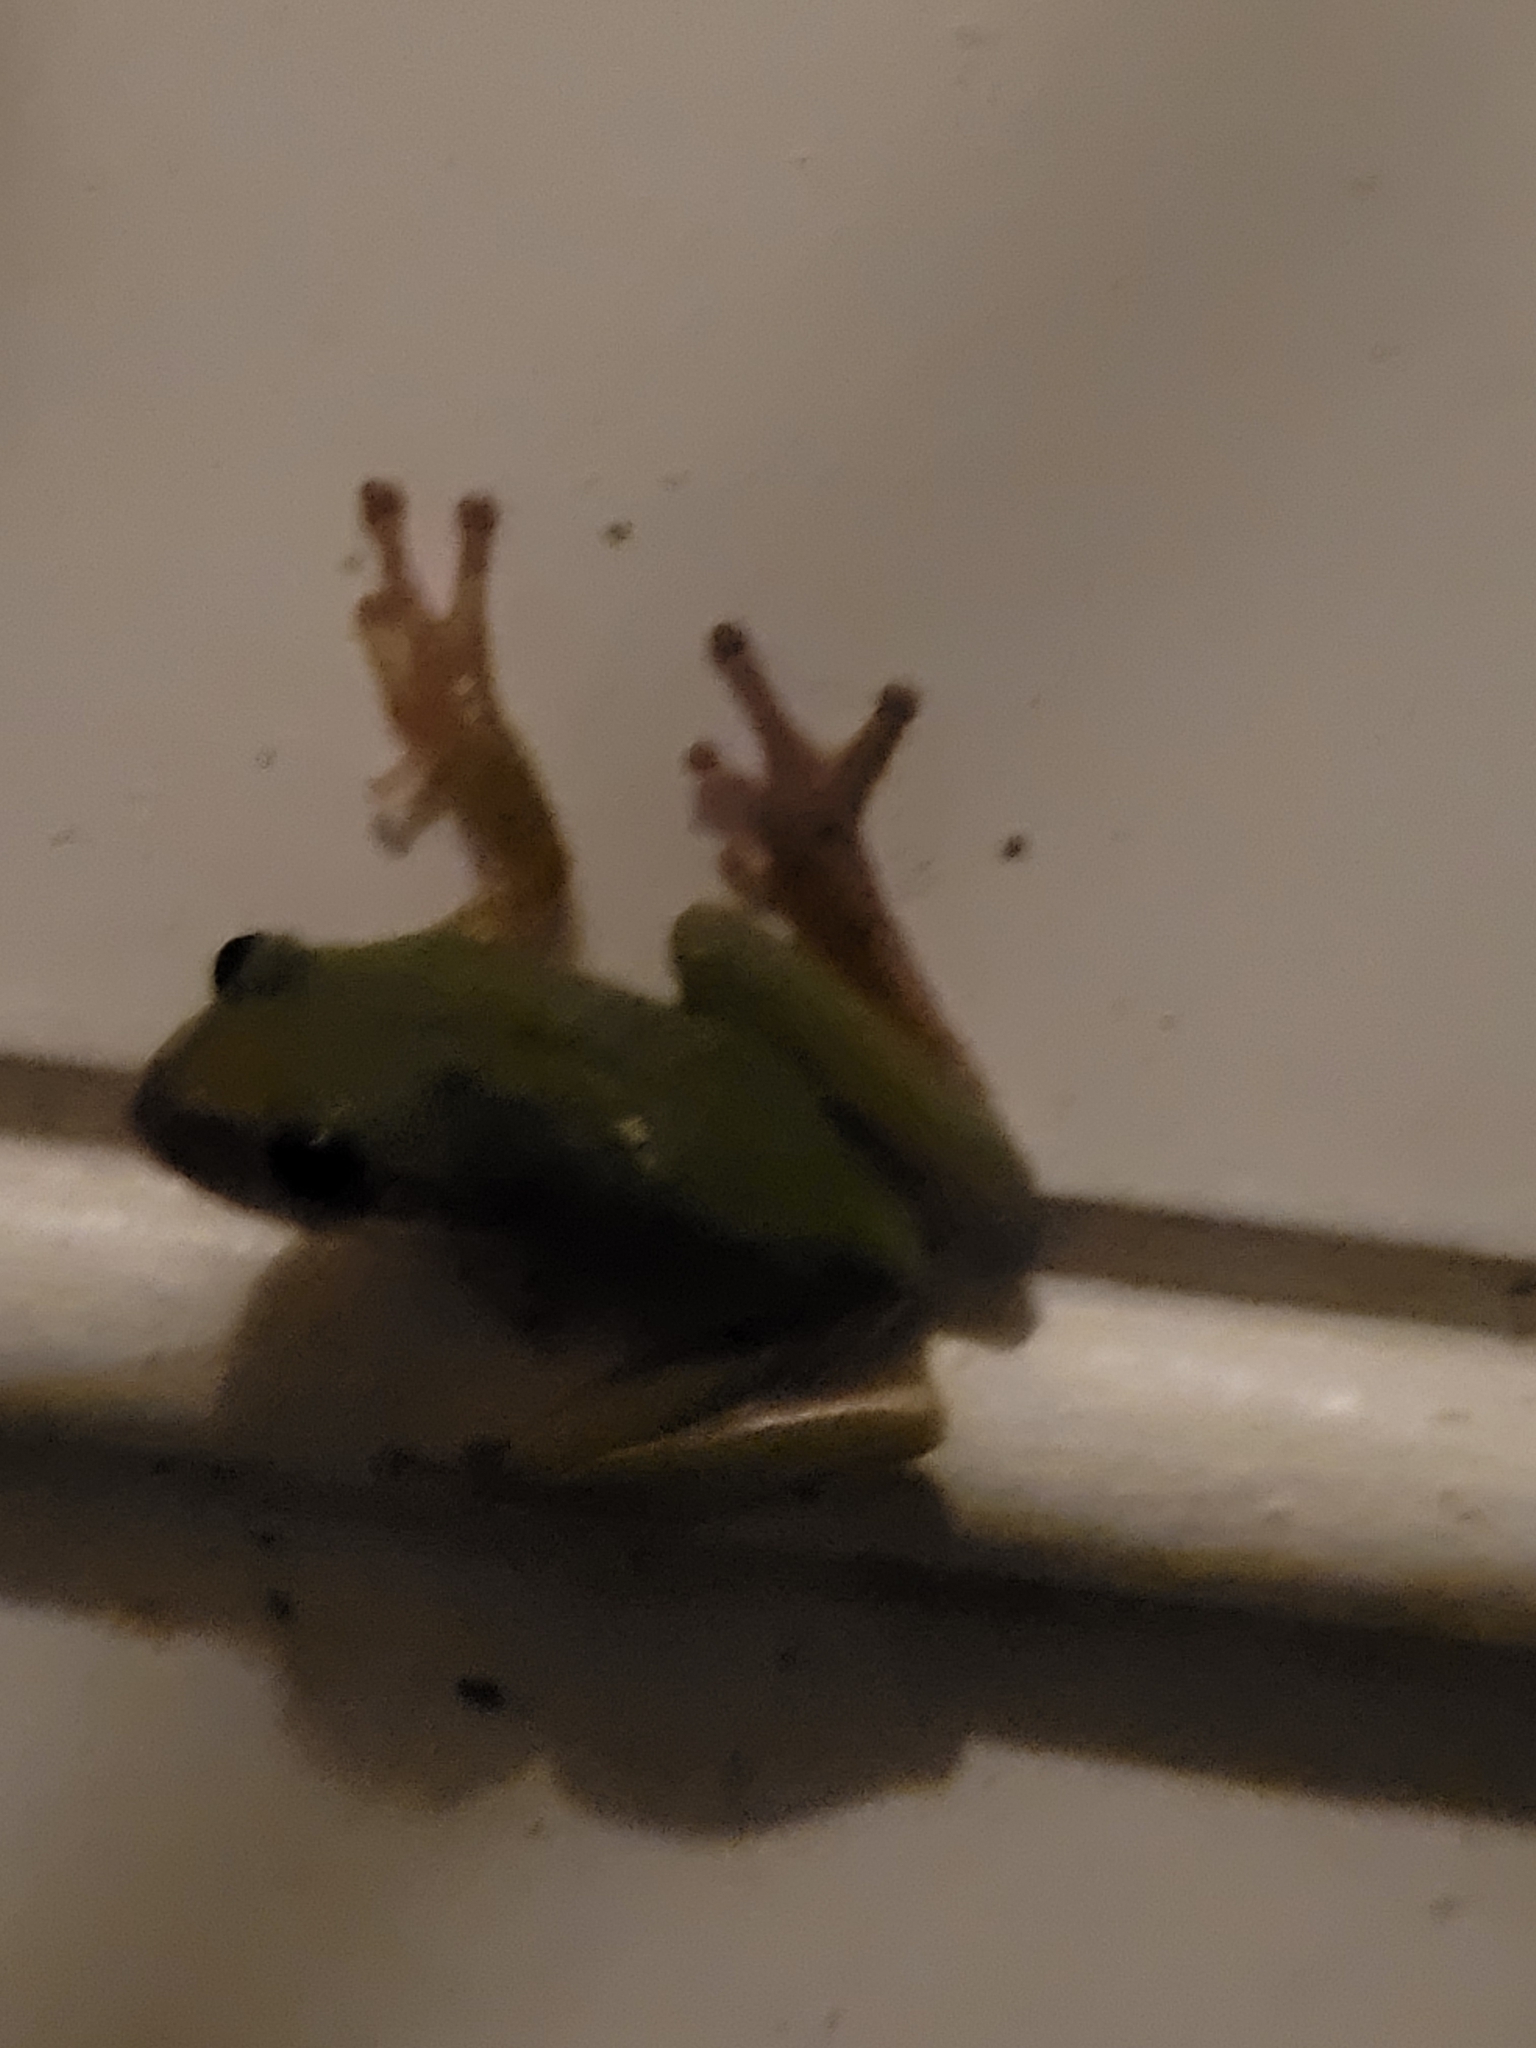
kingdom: Animalia
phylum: Chordata
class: Amphibia
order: Anura
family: Hylidae
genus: Dryophytes
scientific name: Dryophytes squirellus
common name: Squirrel treefrog
